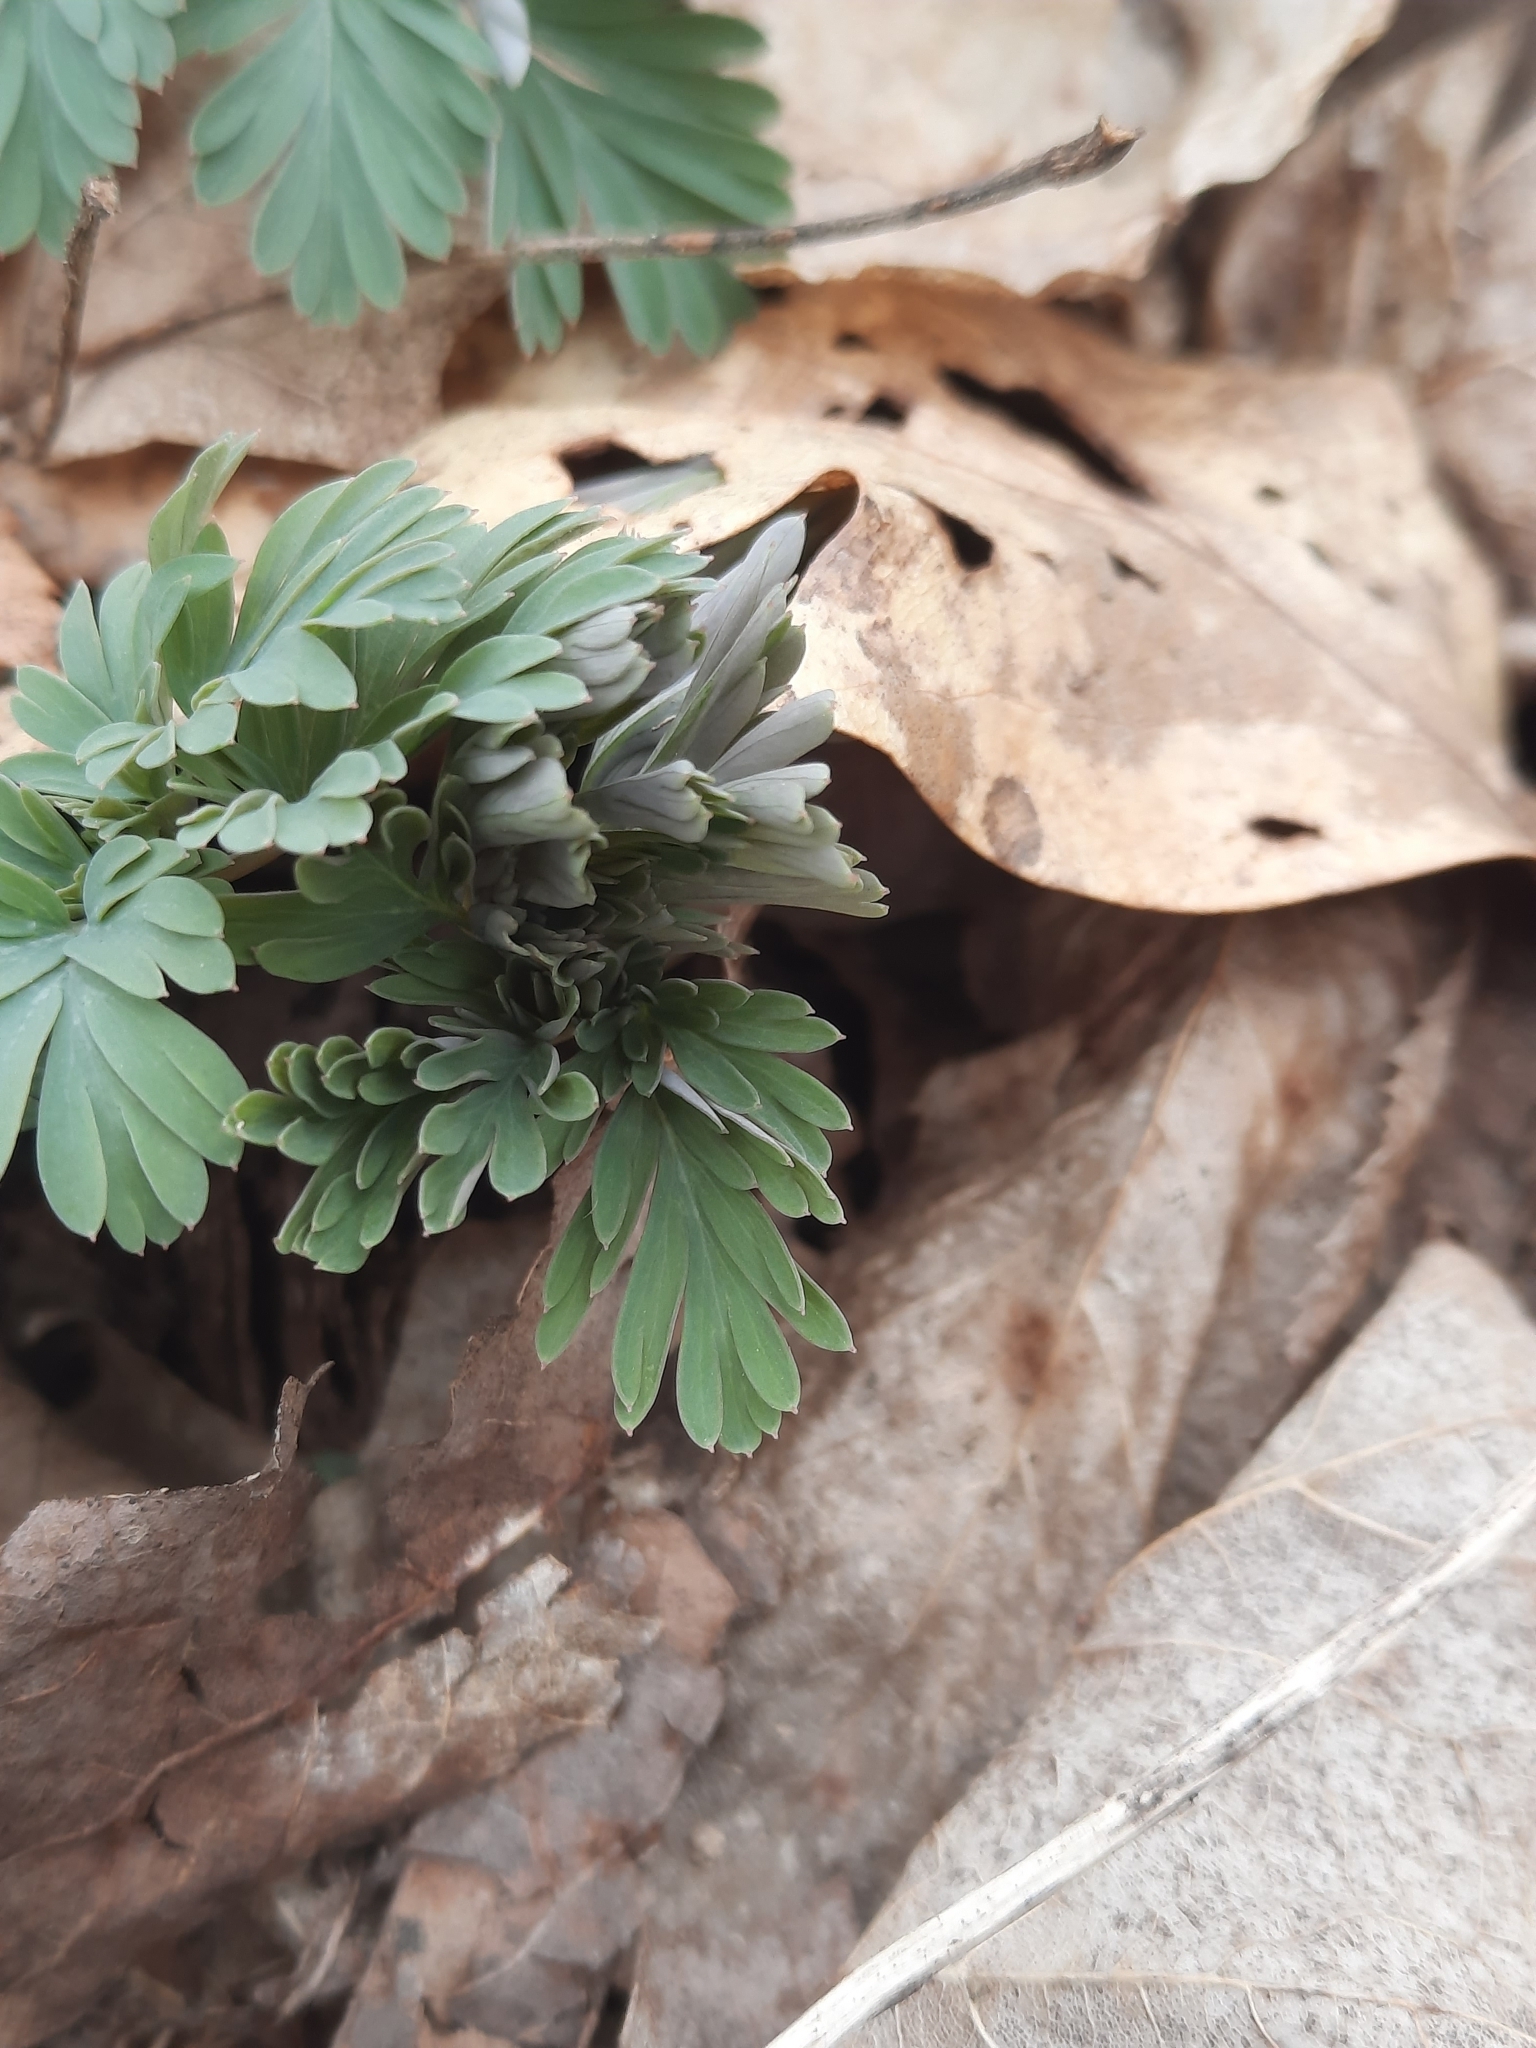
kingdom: Plantae
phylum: Tracheophyta
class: Magnoliopsida
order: Ranunculales
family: Papaveraceae
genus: Dicentra
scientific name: Dicentra cucullaria
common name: Dutchman's breeches
